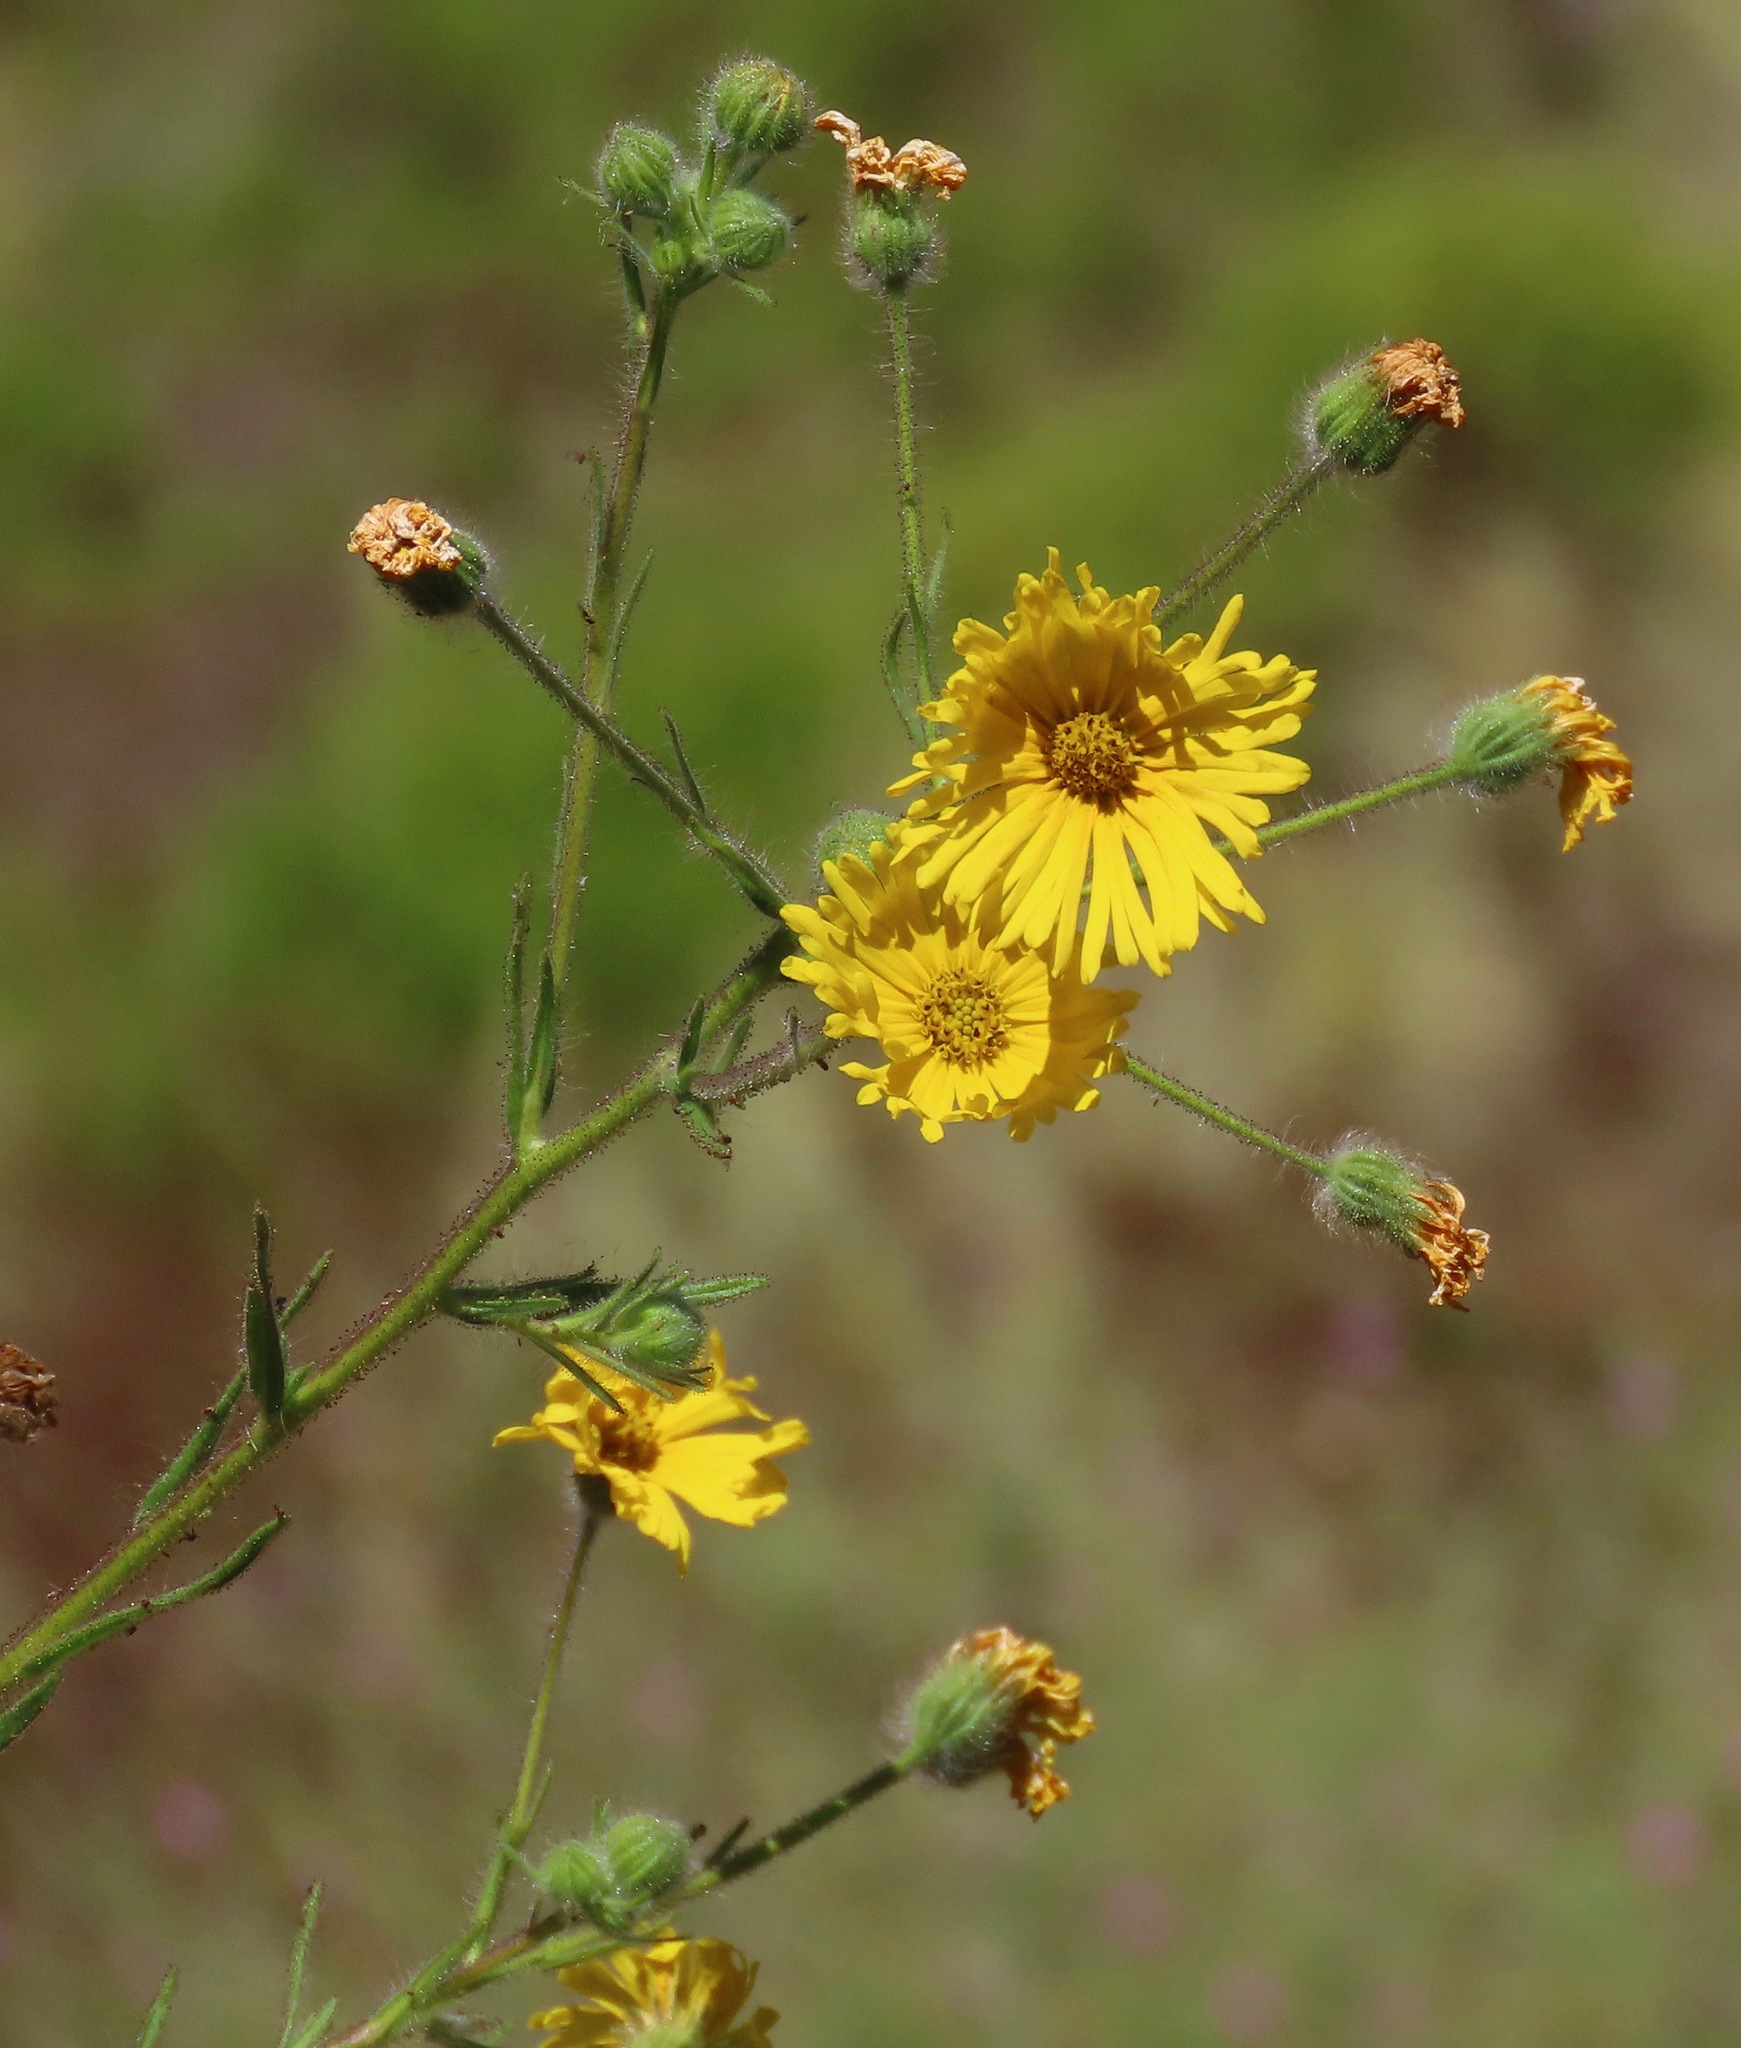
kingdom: Plantae
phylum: Tracheophyta
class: Magnoliopsida
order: Asterales
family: Asteraceae
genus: Madia
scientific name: Madia elegans
